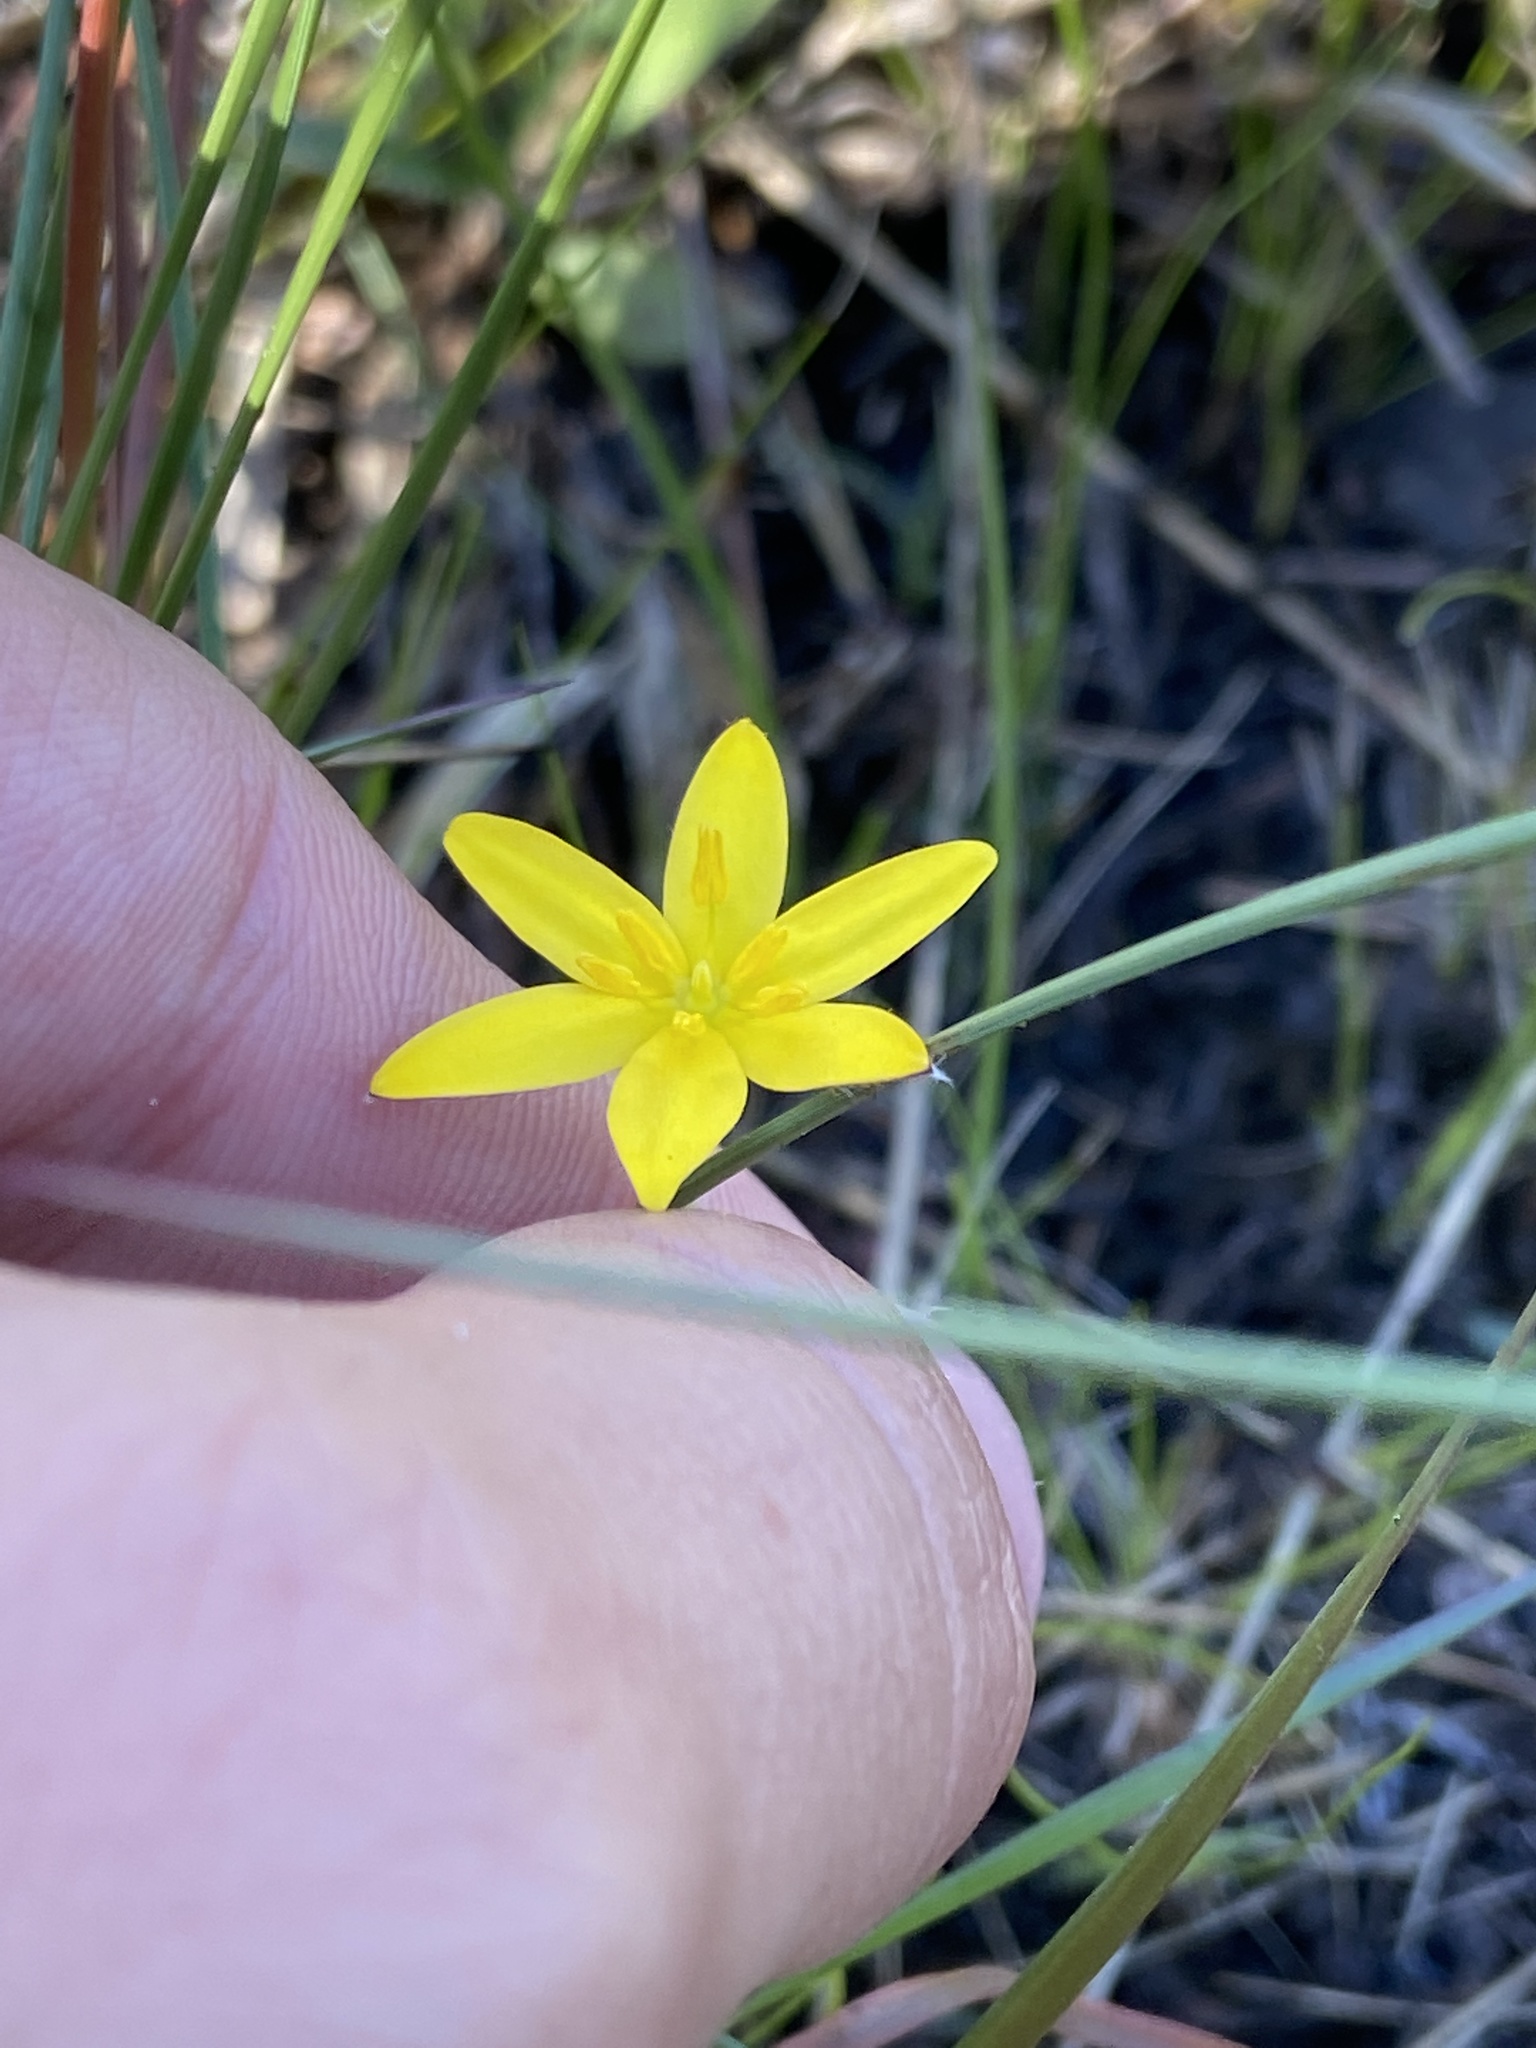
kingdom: Plantae
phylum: Tracheophyta
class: Liliopsida
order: Asparagales
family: Hypoxidaceae
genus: Hypoxis
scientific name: Hypoxis juncea
